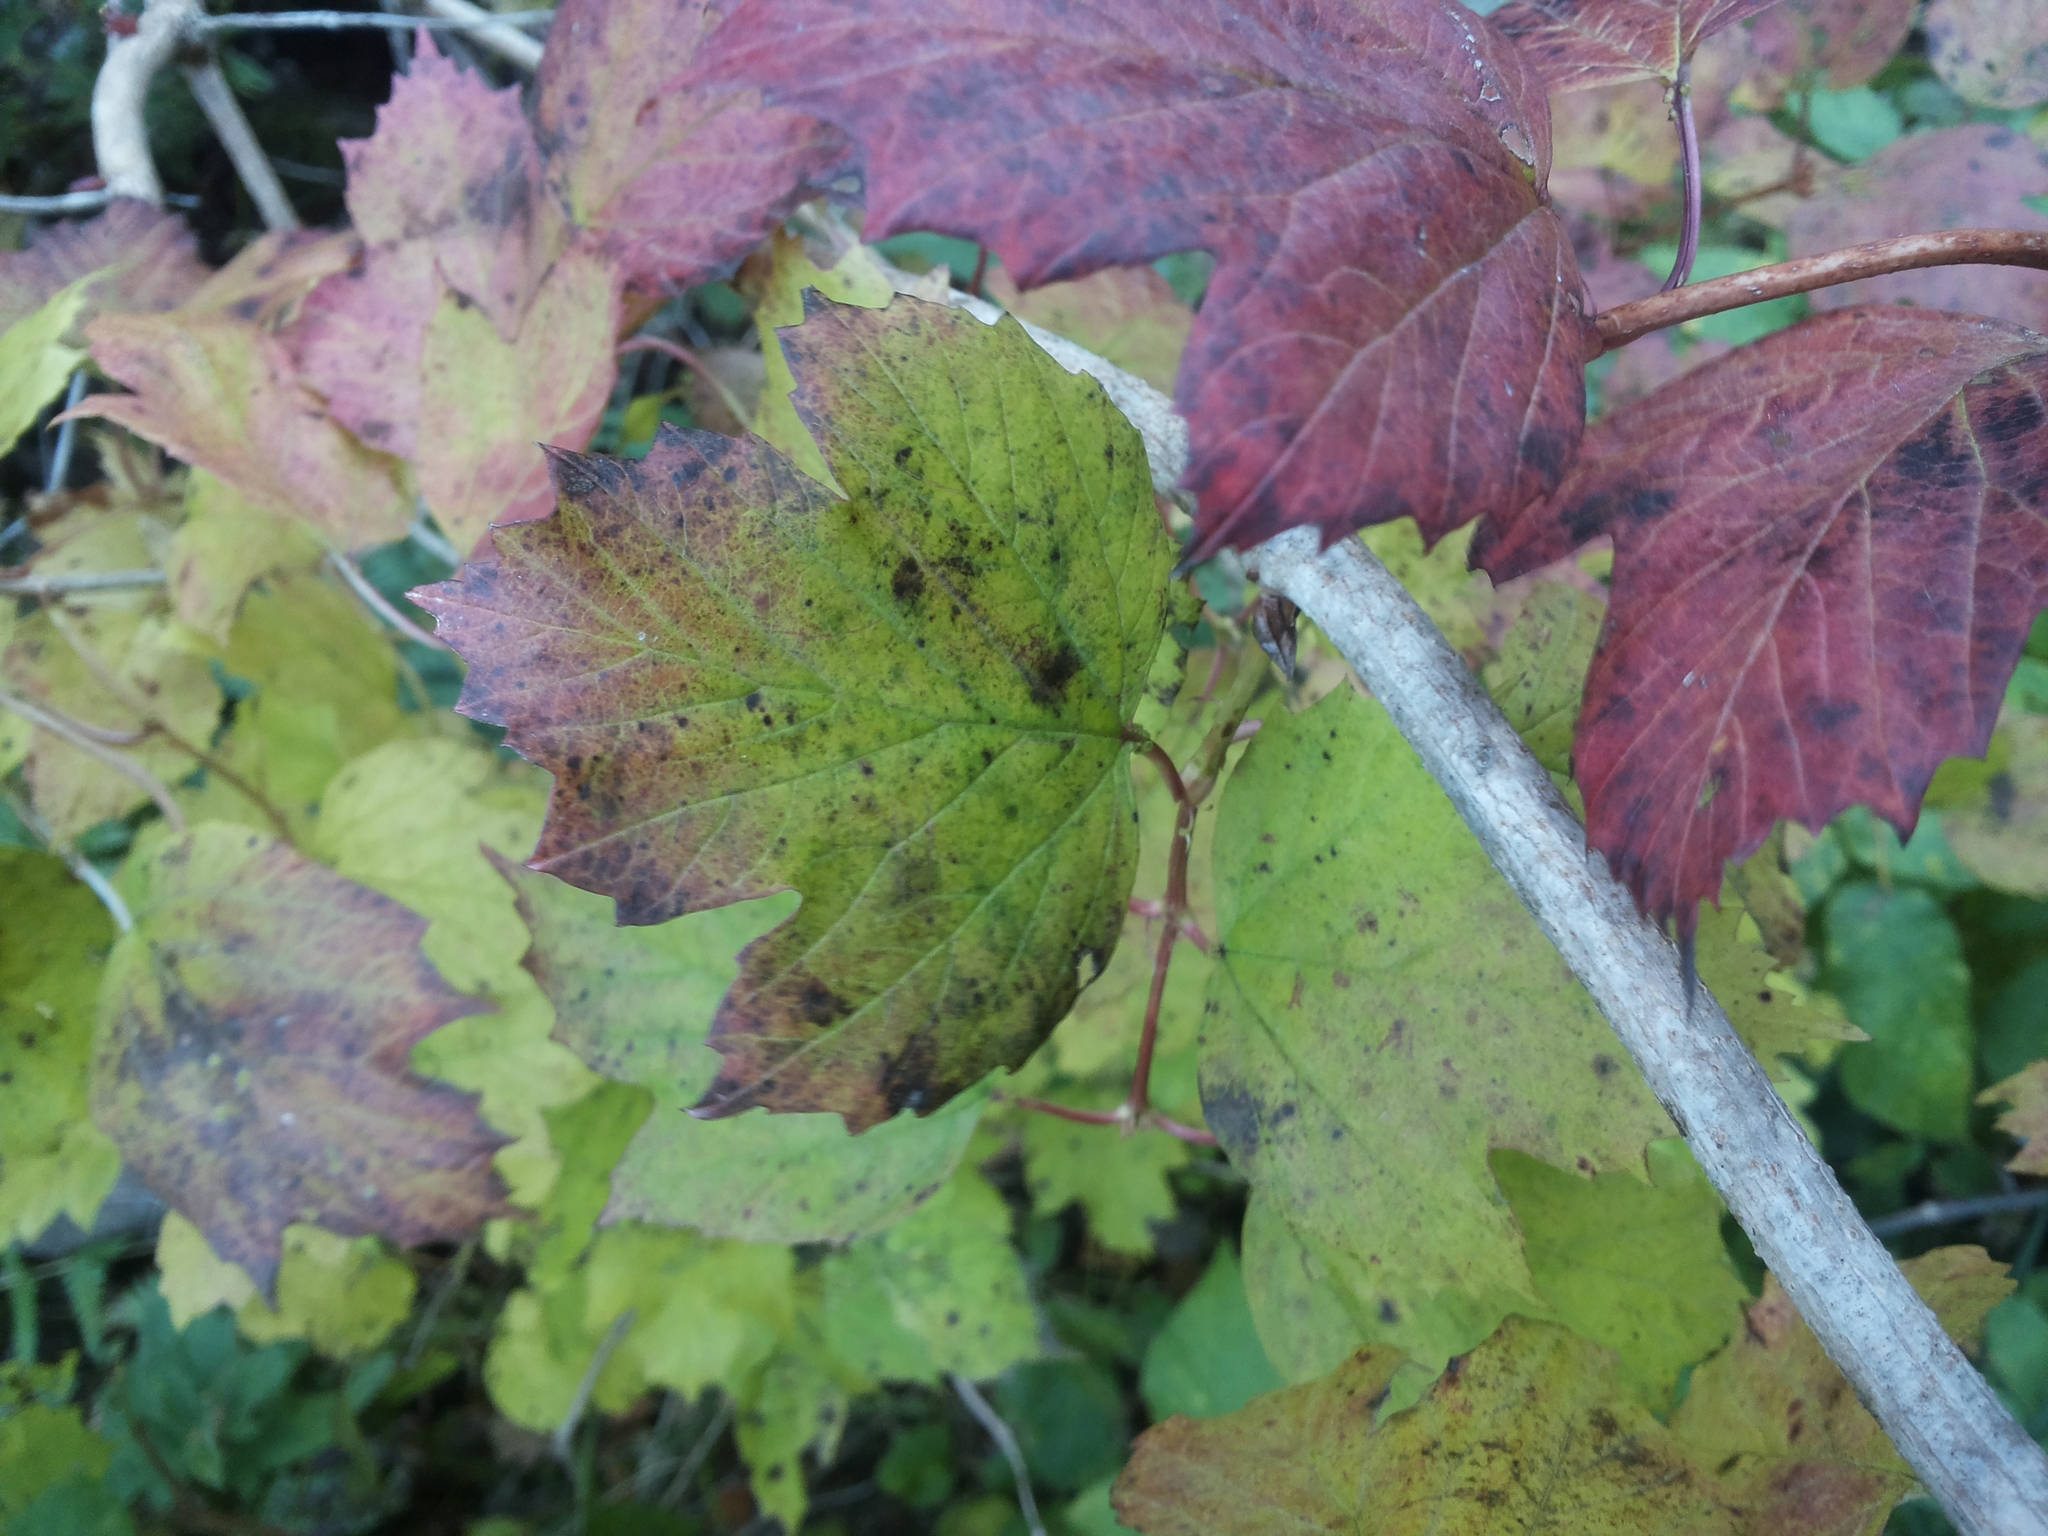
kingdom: Plantae
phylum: Tracheophyta
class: Magnoliopsida
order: Dipsacales
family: Viburnaceae
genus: Viburnum
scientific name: Viburnum opulus
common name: Guelder-rose
